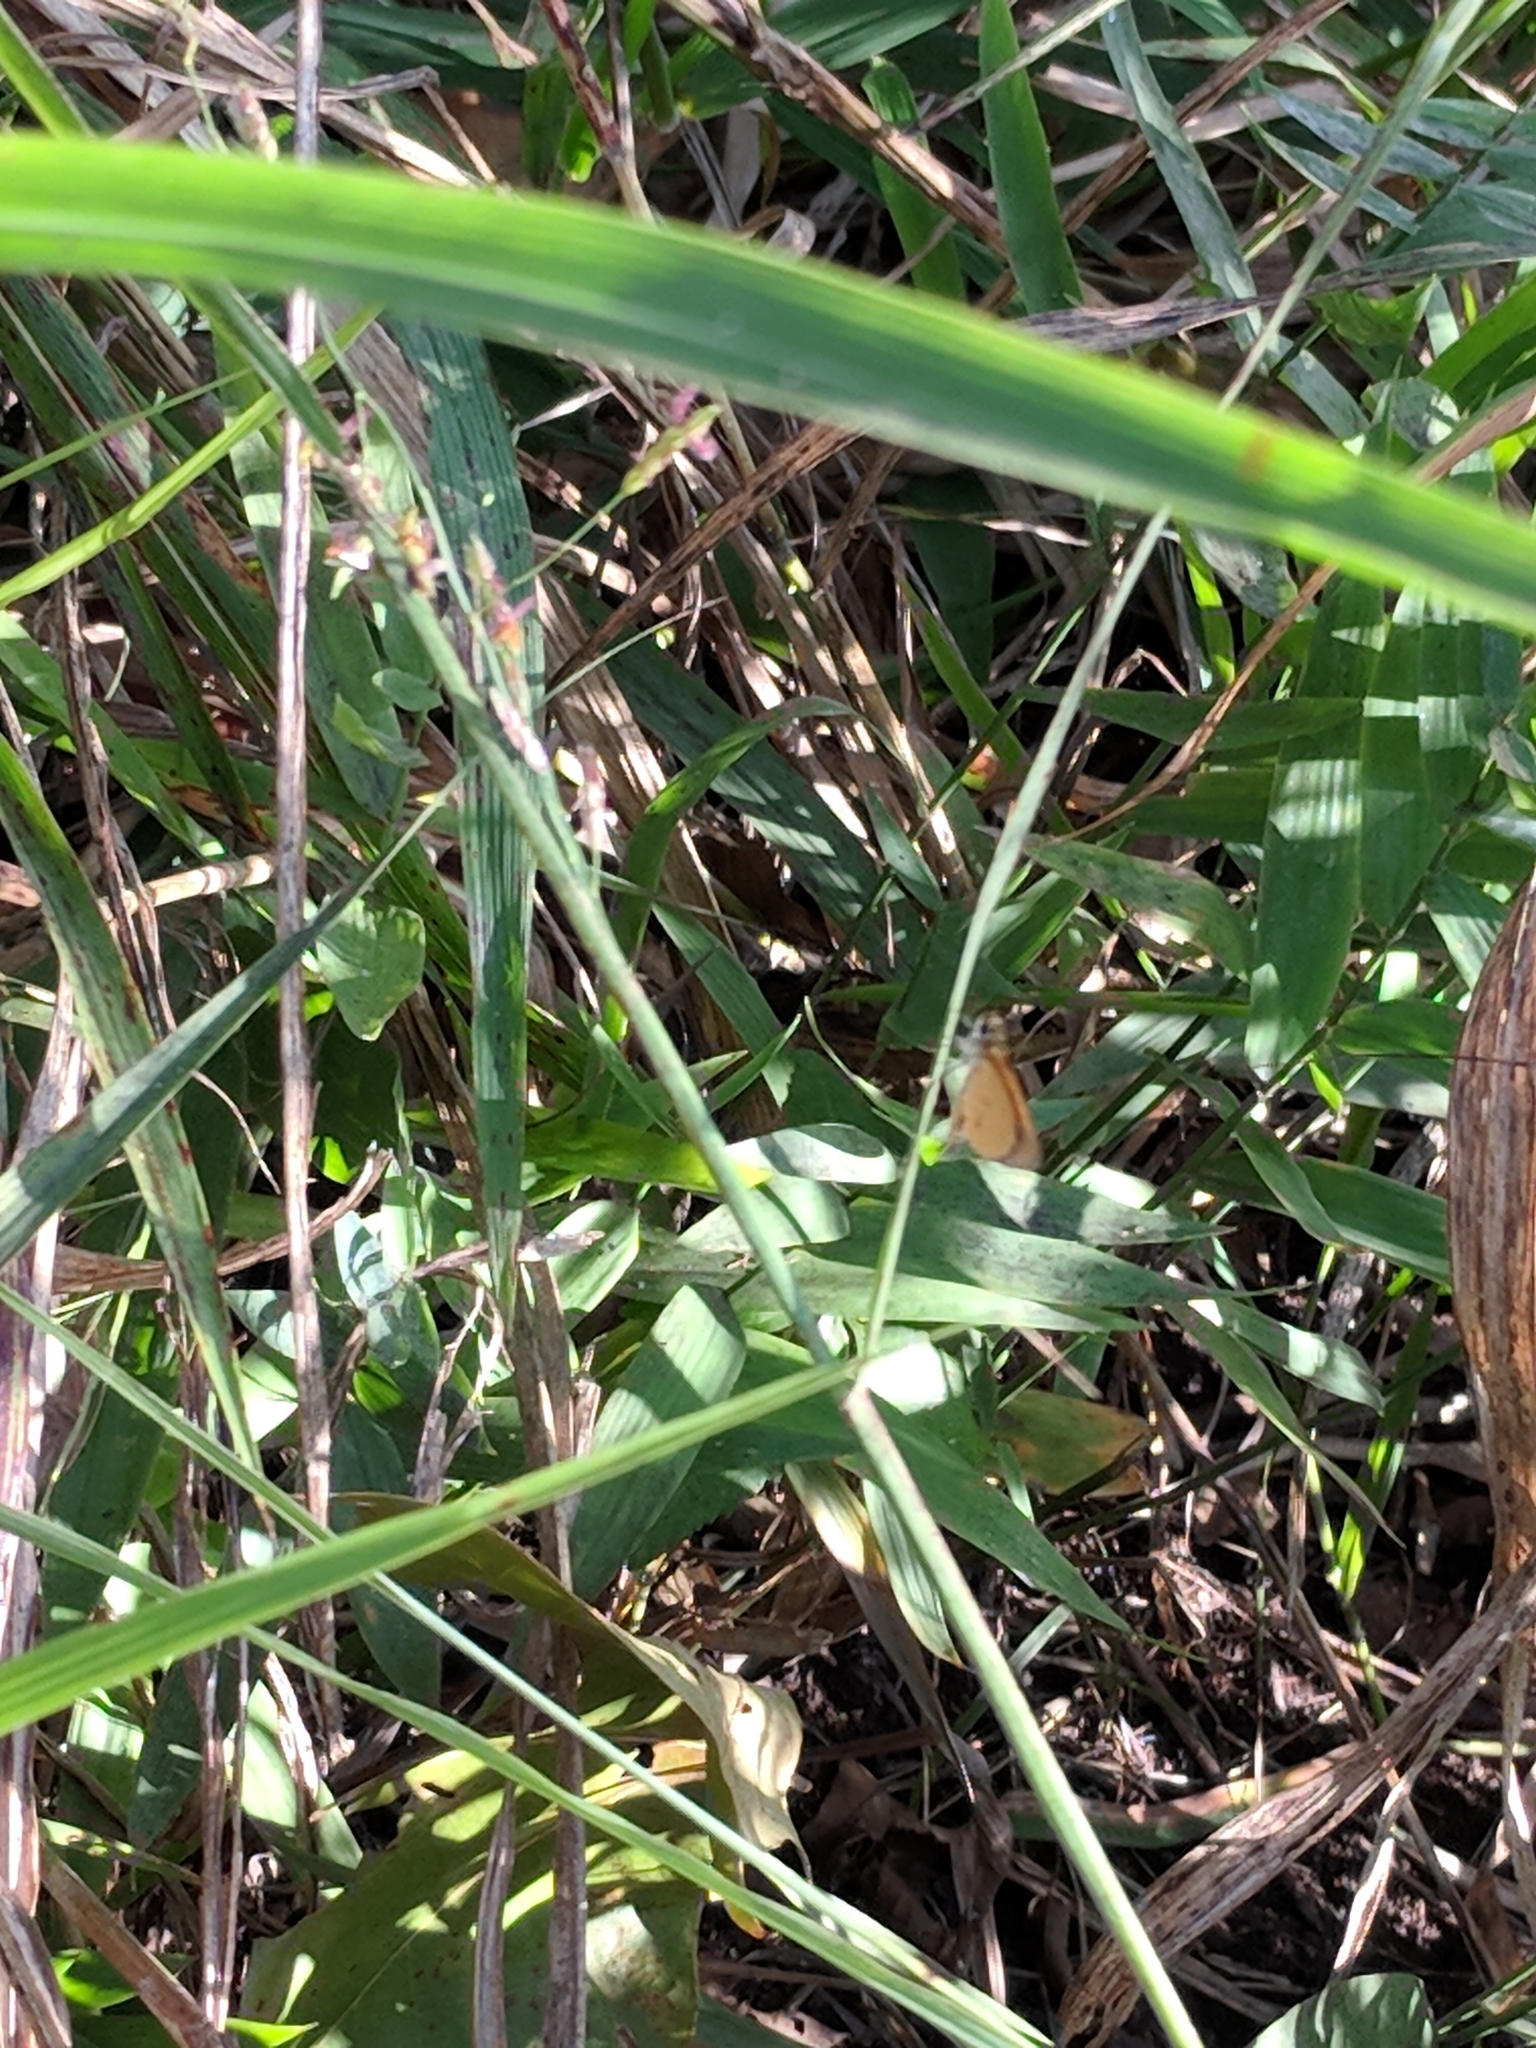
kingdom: Animalia
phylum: Arthropoda
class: Insecta
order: Lepidoptera
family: Hesperiidae
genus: Ancyloxypha
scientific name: Ancyloxypha numitor
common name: Least skipper
